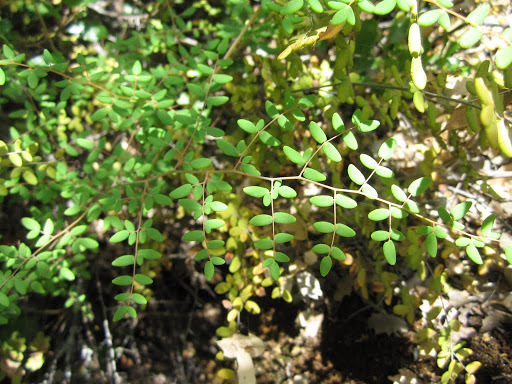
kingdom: Plantae
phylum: Tracheophyta
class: Polypodiopsida
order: Polypodiales
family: Pteridaceae
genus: Pellaea
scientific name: Pellaea andromedifolia
